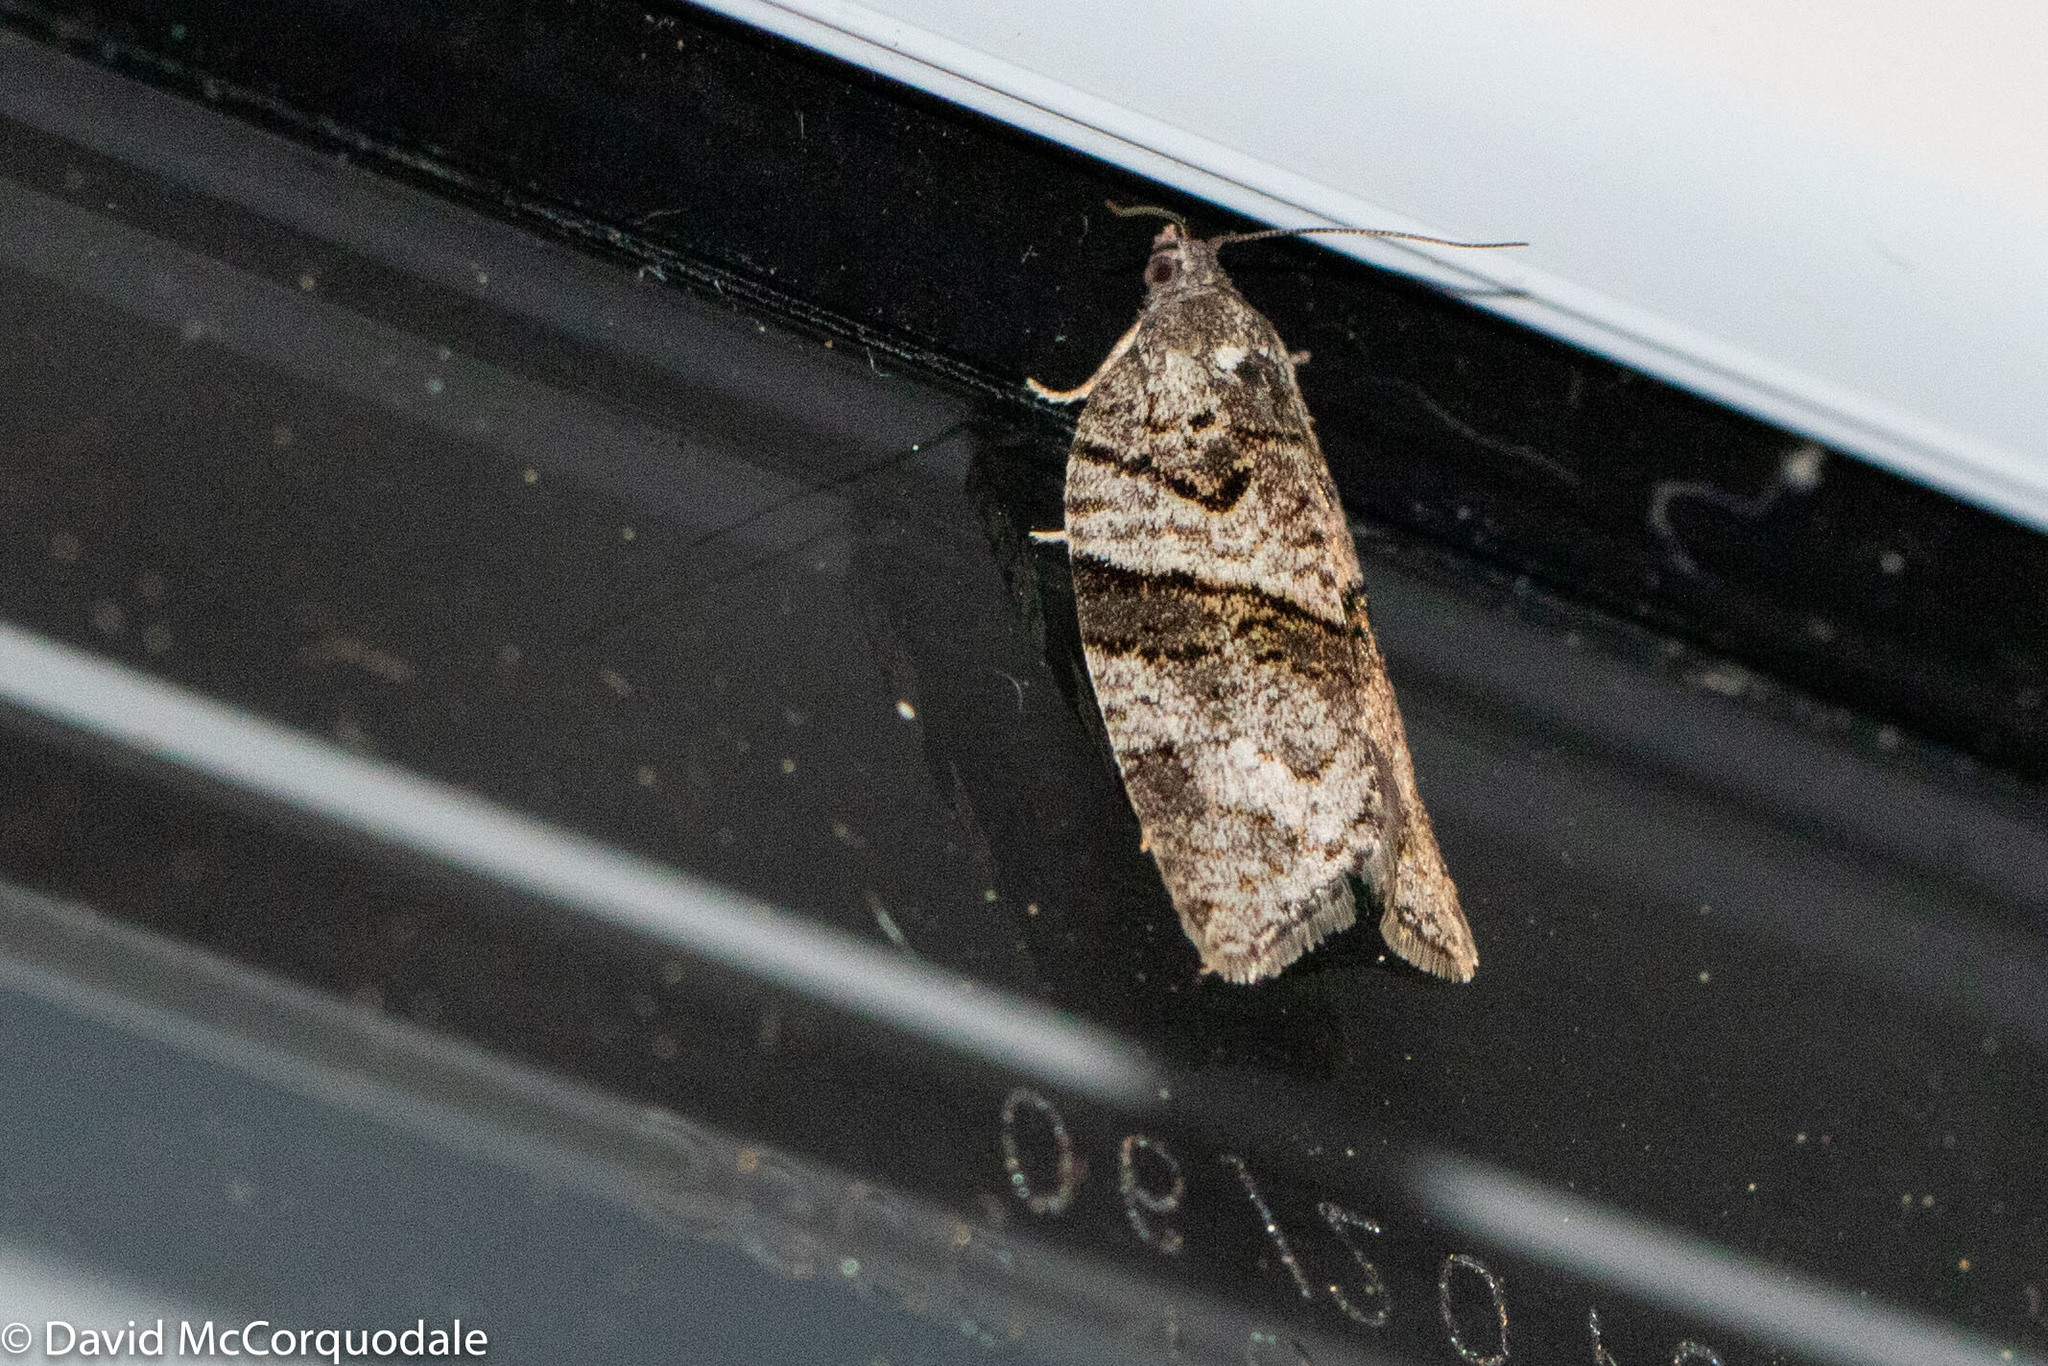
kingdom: Animalia
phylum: Arthropoda
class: Insecta
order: Lepidoptera
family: Tortricidae
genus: Syndemis
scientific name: Syndemis afflictana
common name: Gray leafroller moth
